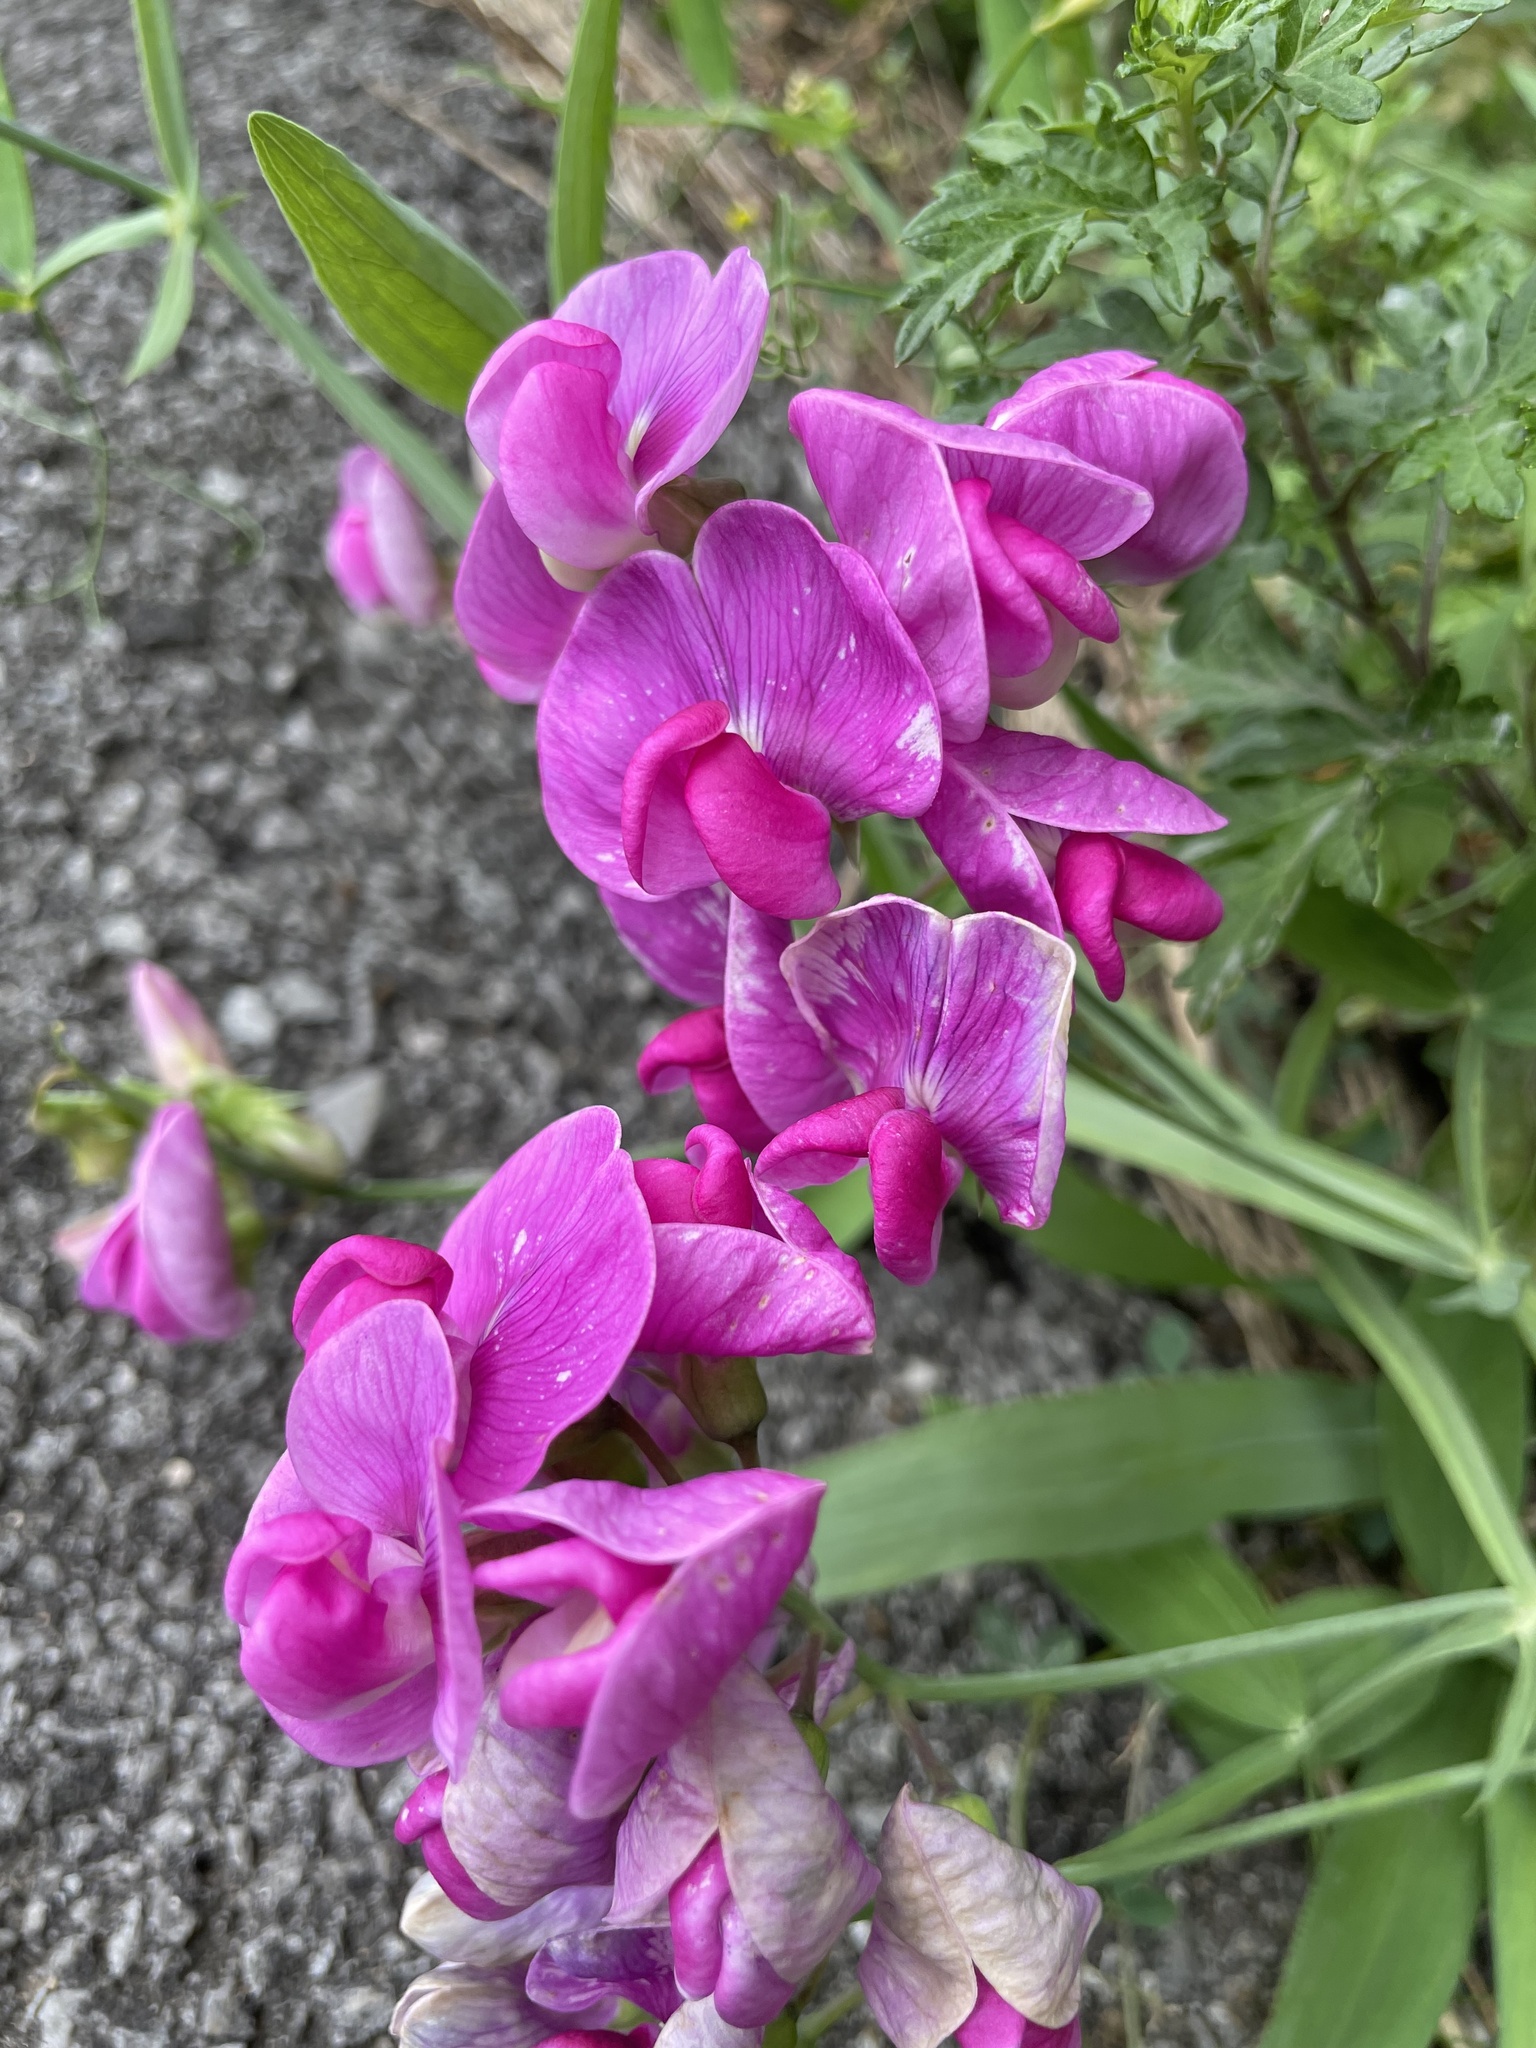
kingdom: Plantae
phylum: Tracheophyta
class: Magnoliopsida
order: Fabales
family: Fabaceae
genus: Lathyrus
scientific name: Lathyrus latifolius
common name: Perennial pea
